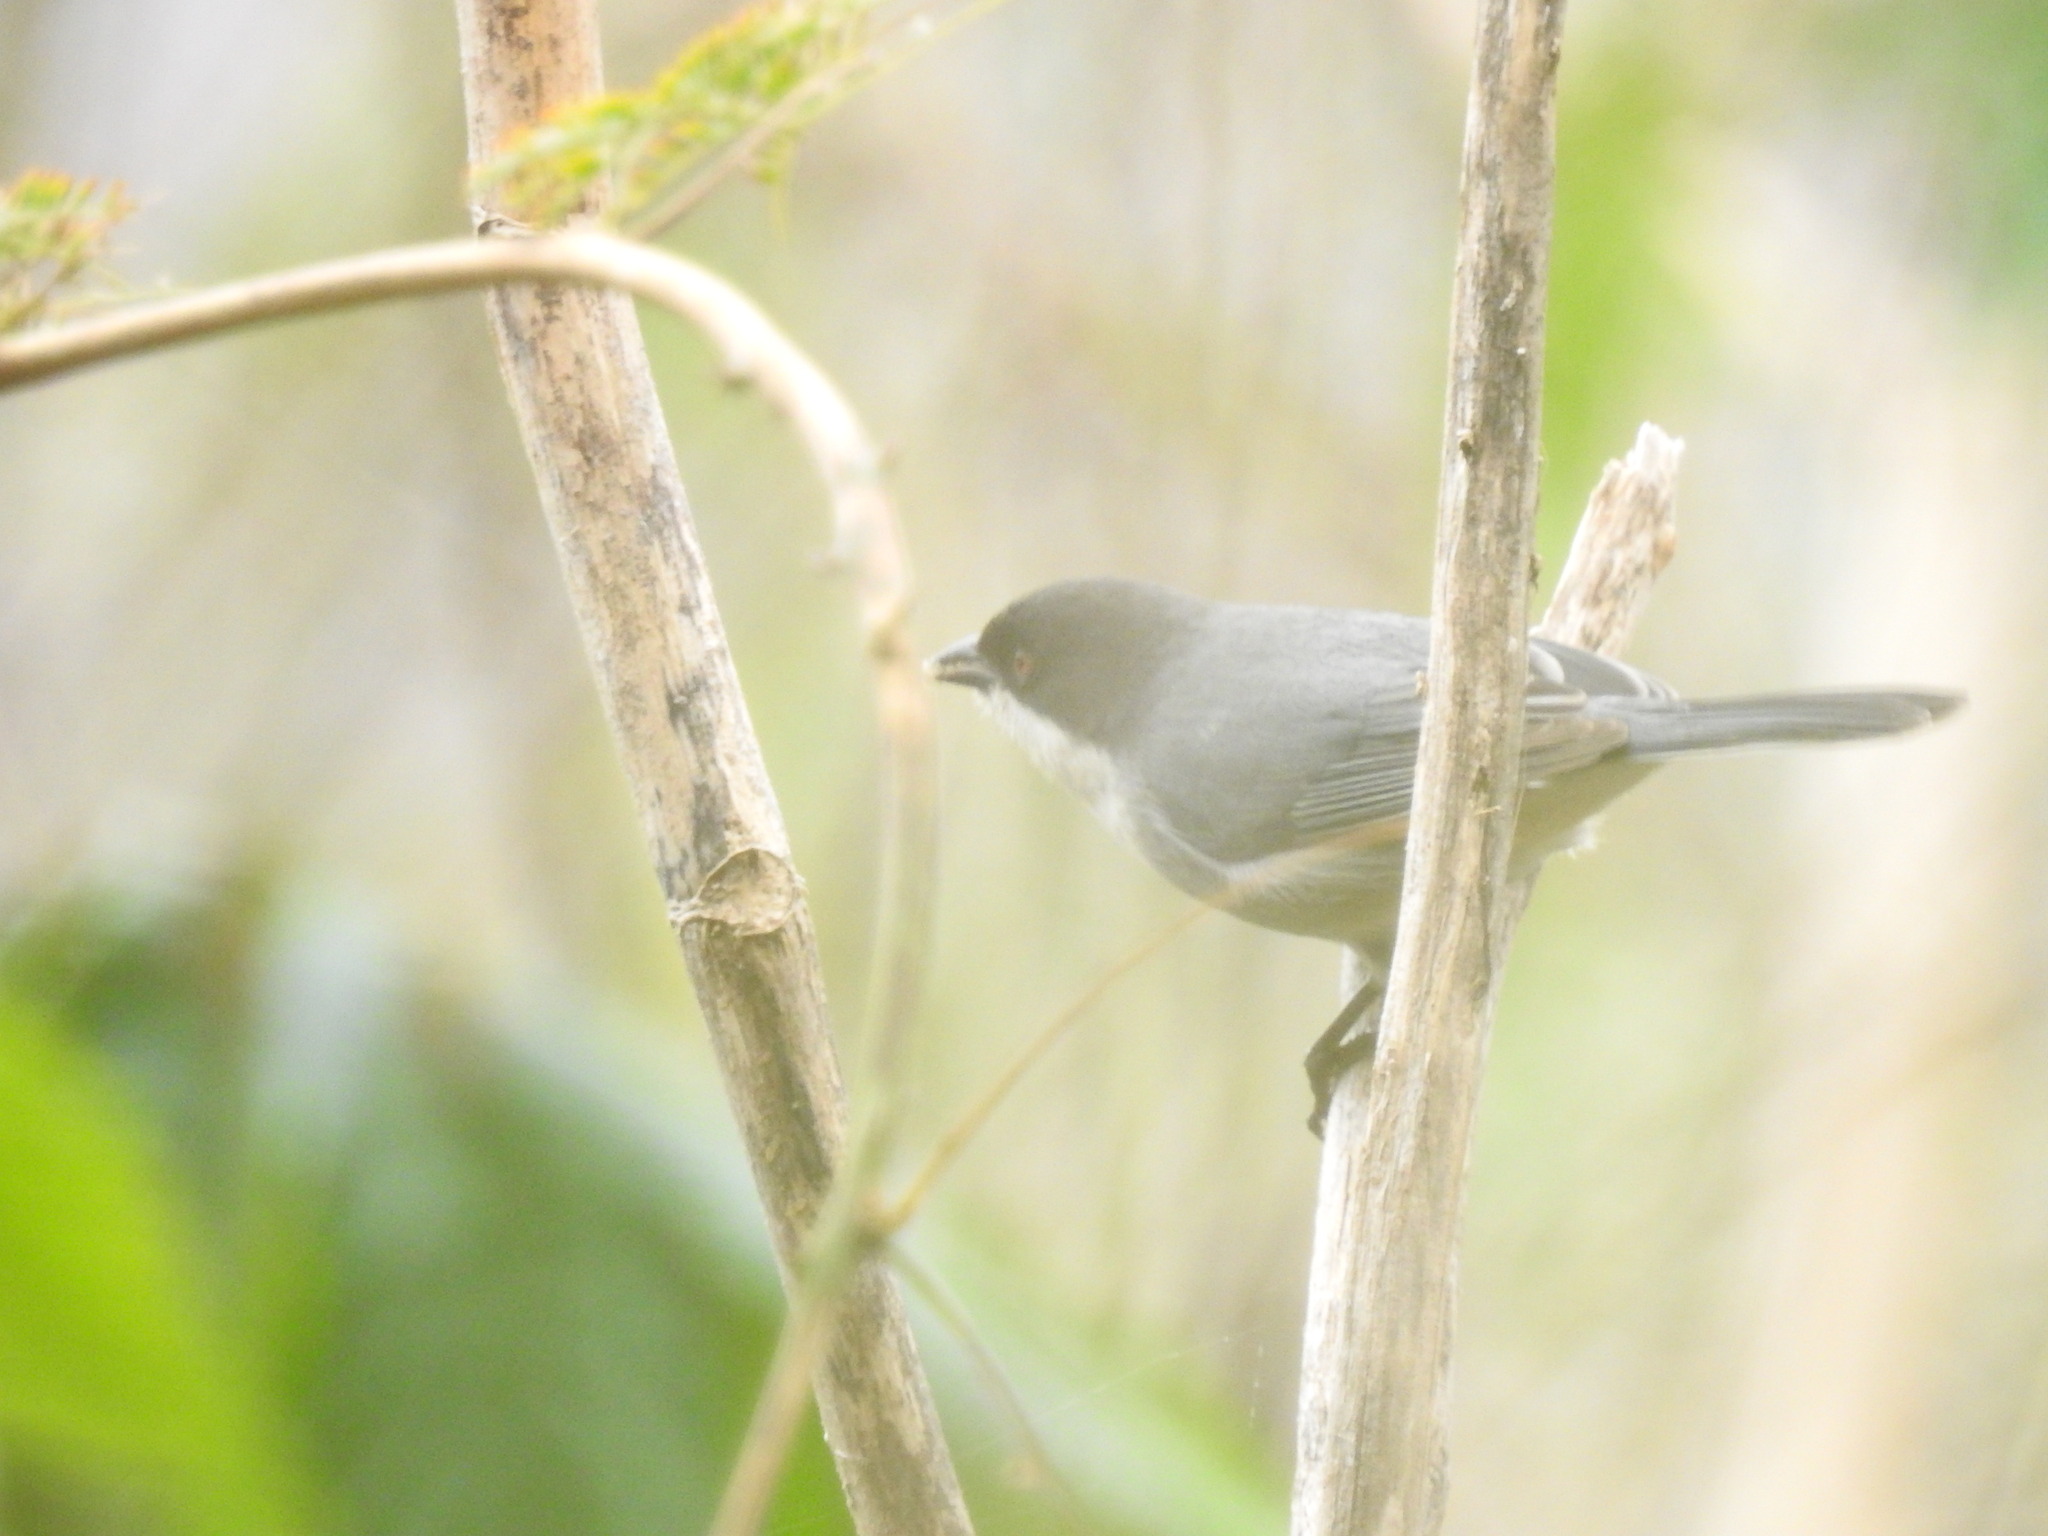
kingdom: Animalia
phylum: Chordata
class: Aves
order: Passeriformes
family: Thraupidae
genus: Microspingus
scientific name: Microspingus melanoleucus
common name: Black-capped warbling-finch
